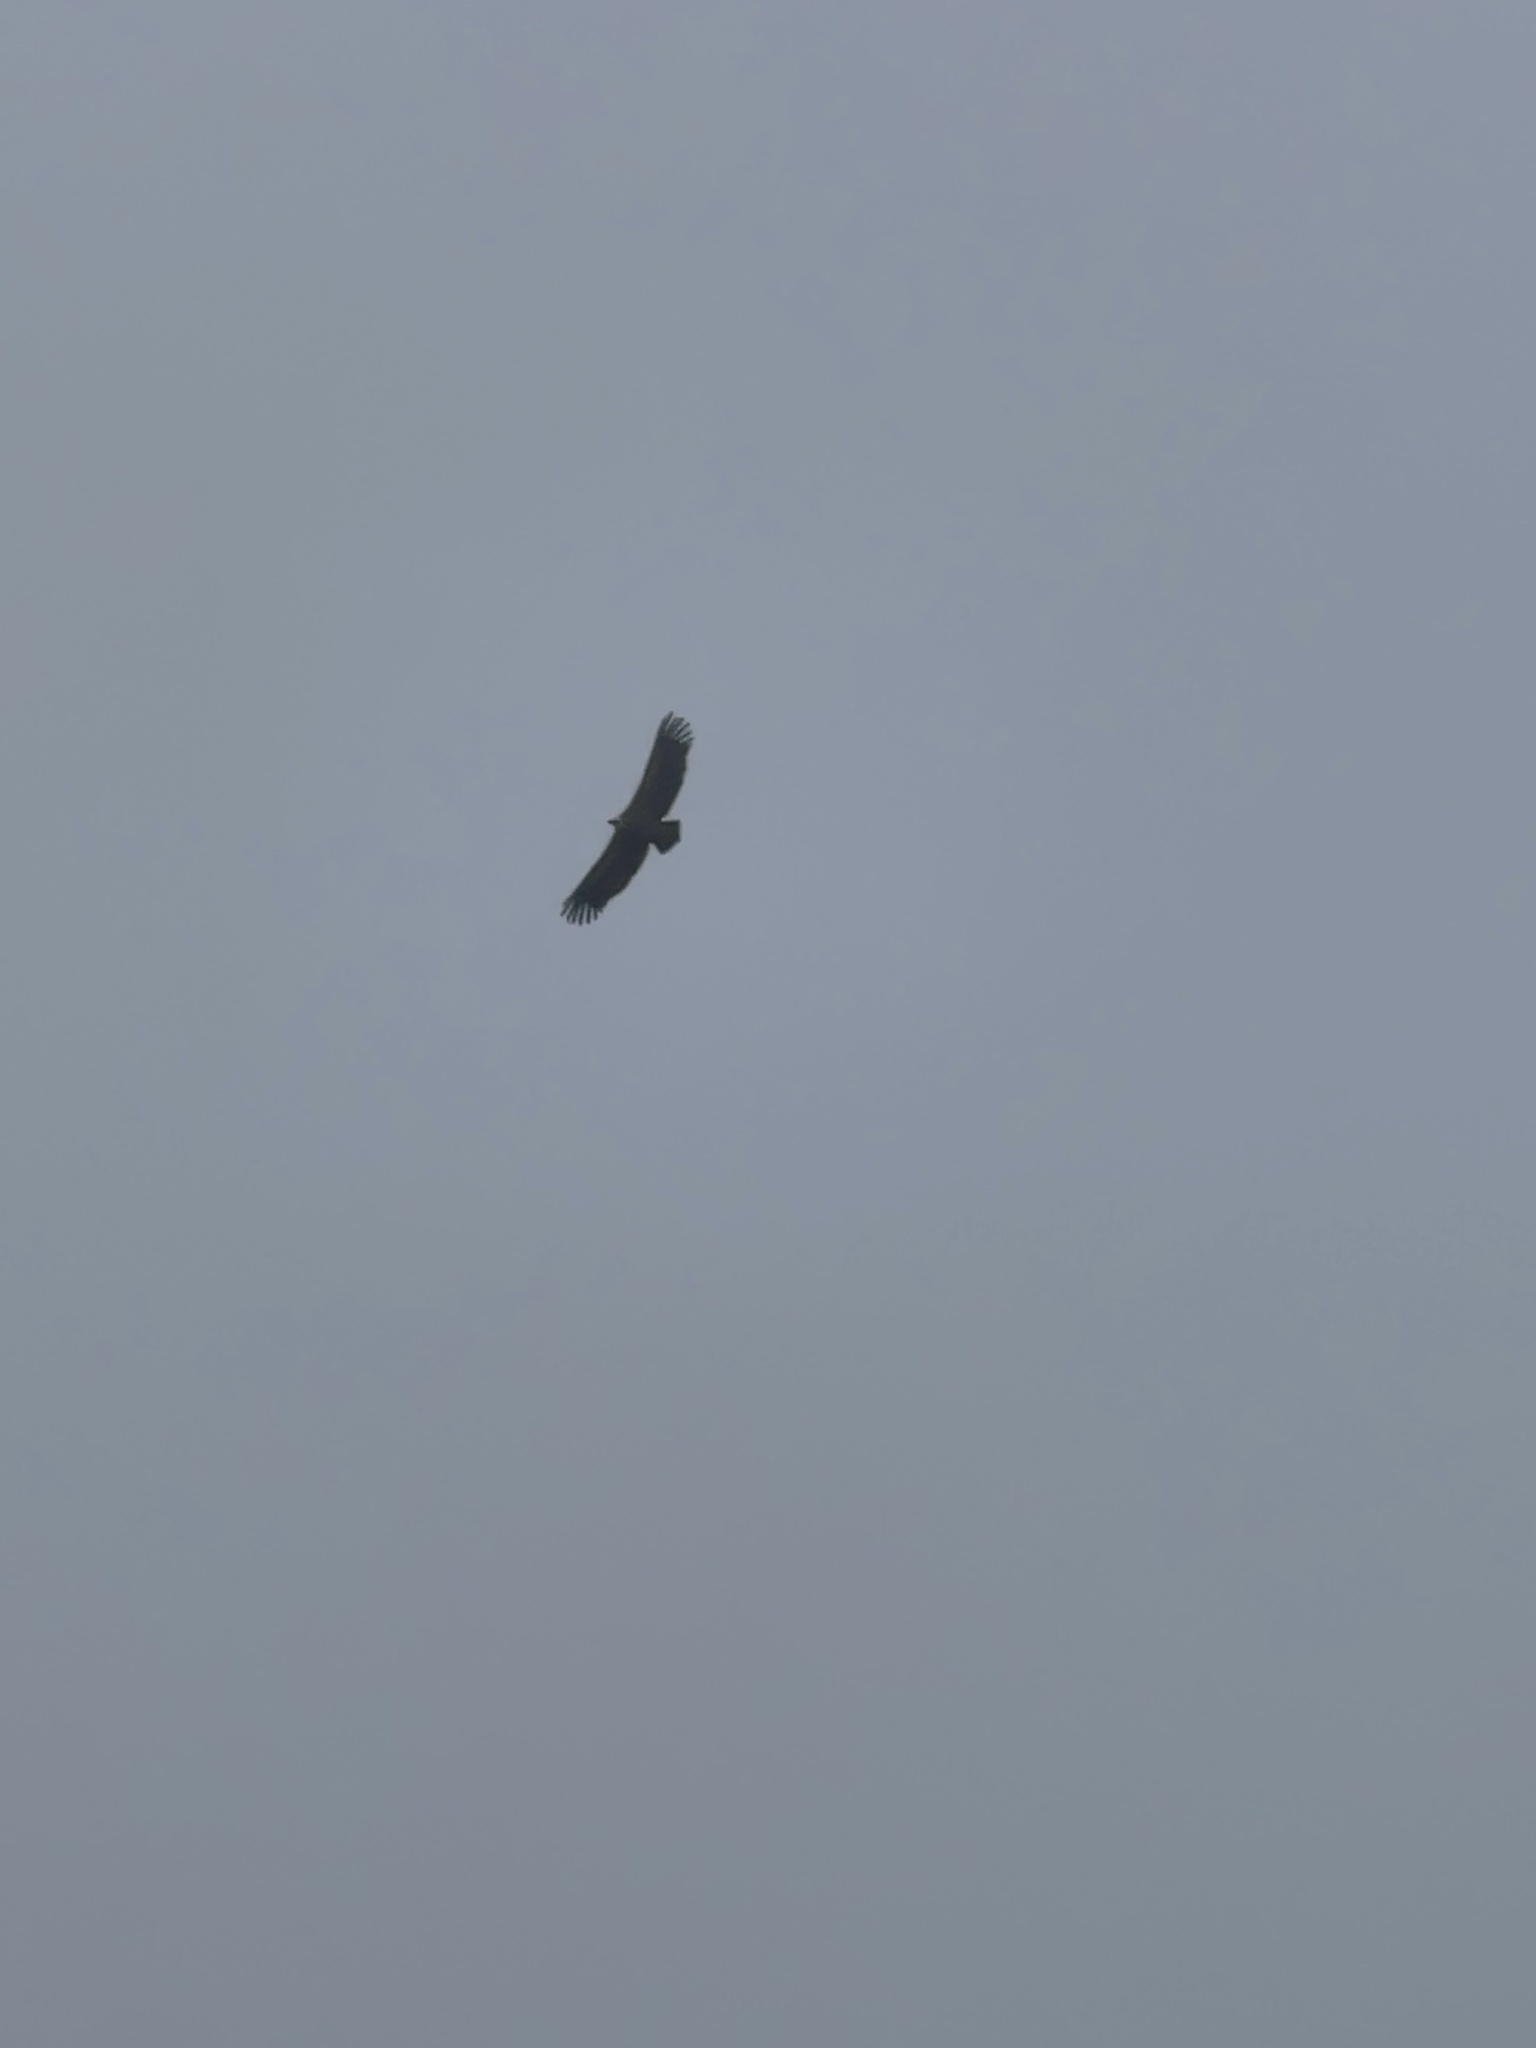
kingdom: Animalia
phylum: Chordata
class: Aves
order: Accipitriformes
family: Accipitridae
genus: Gyps
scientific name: Gyps fulvus
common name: Griffon vulture
